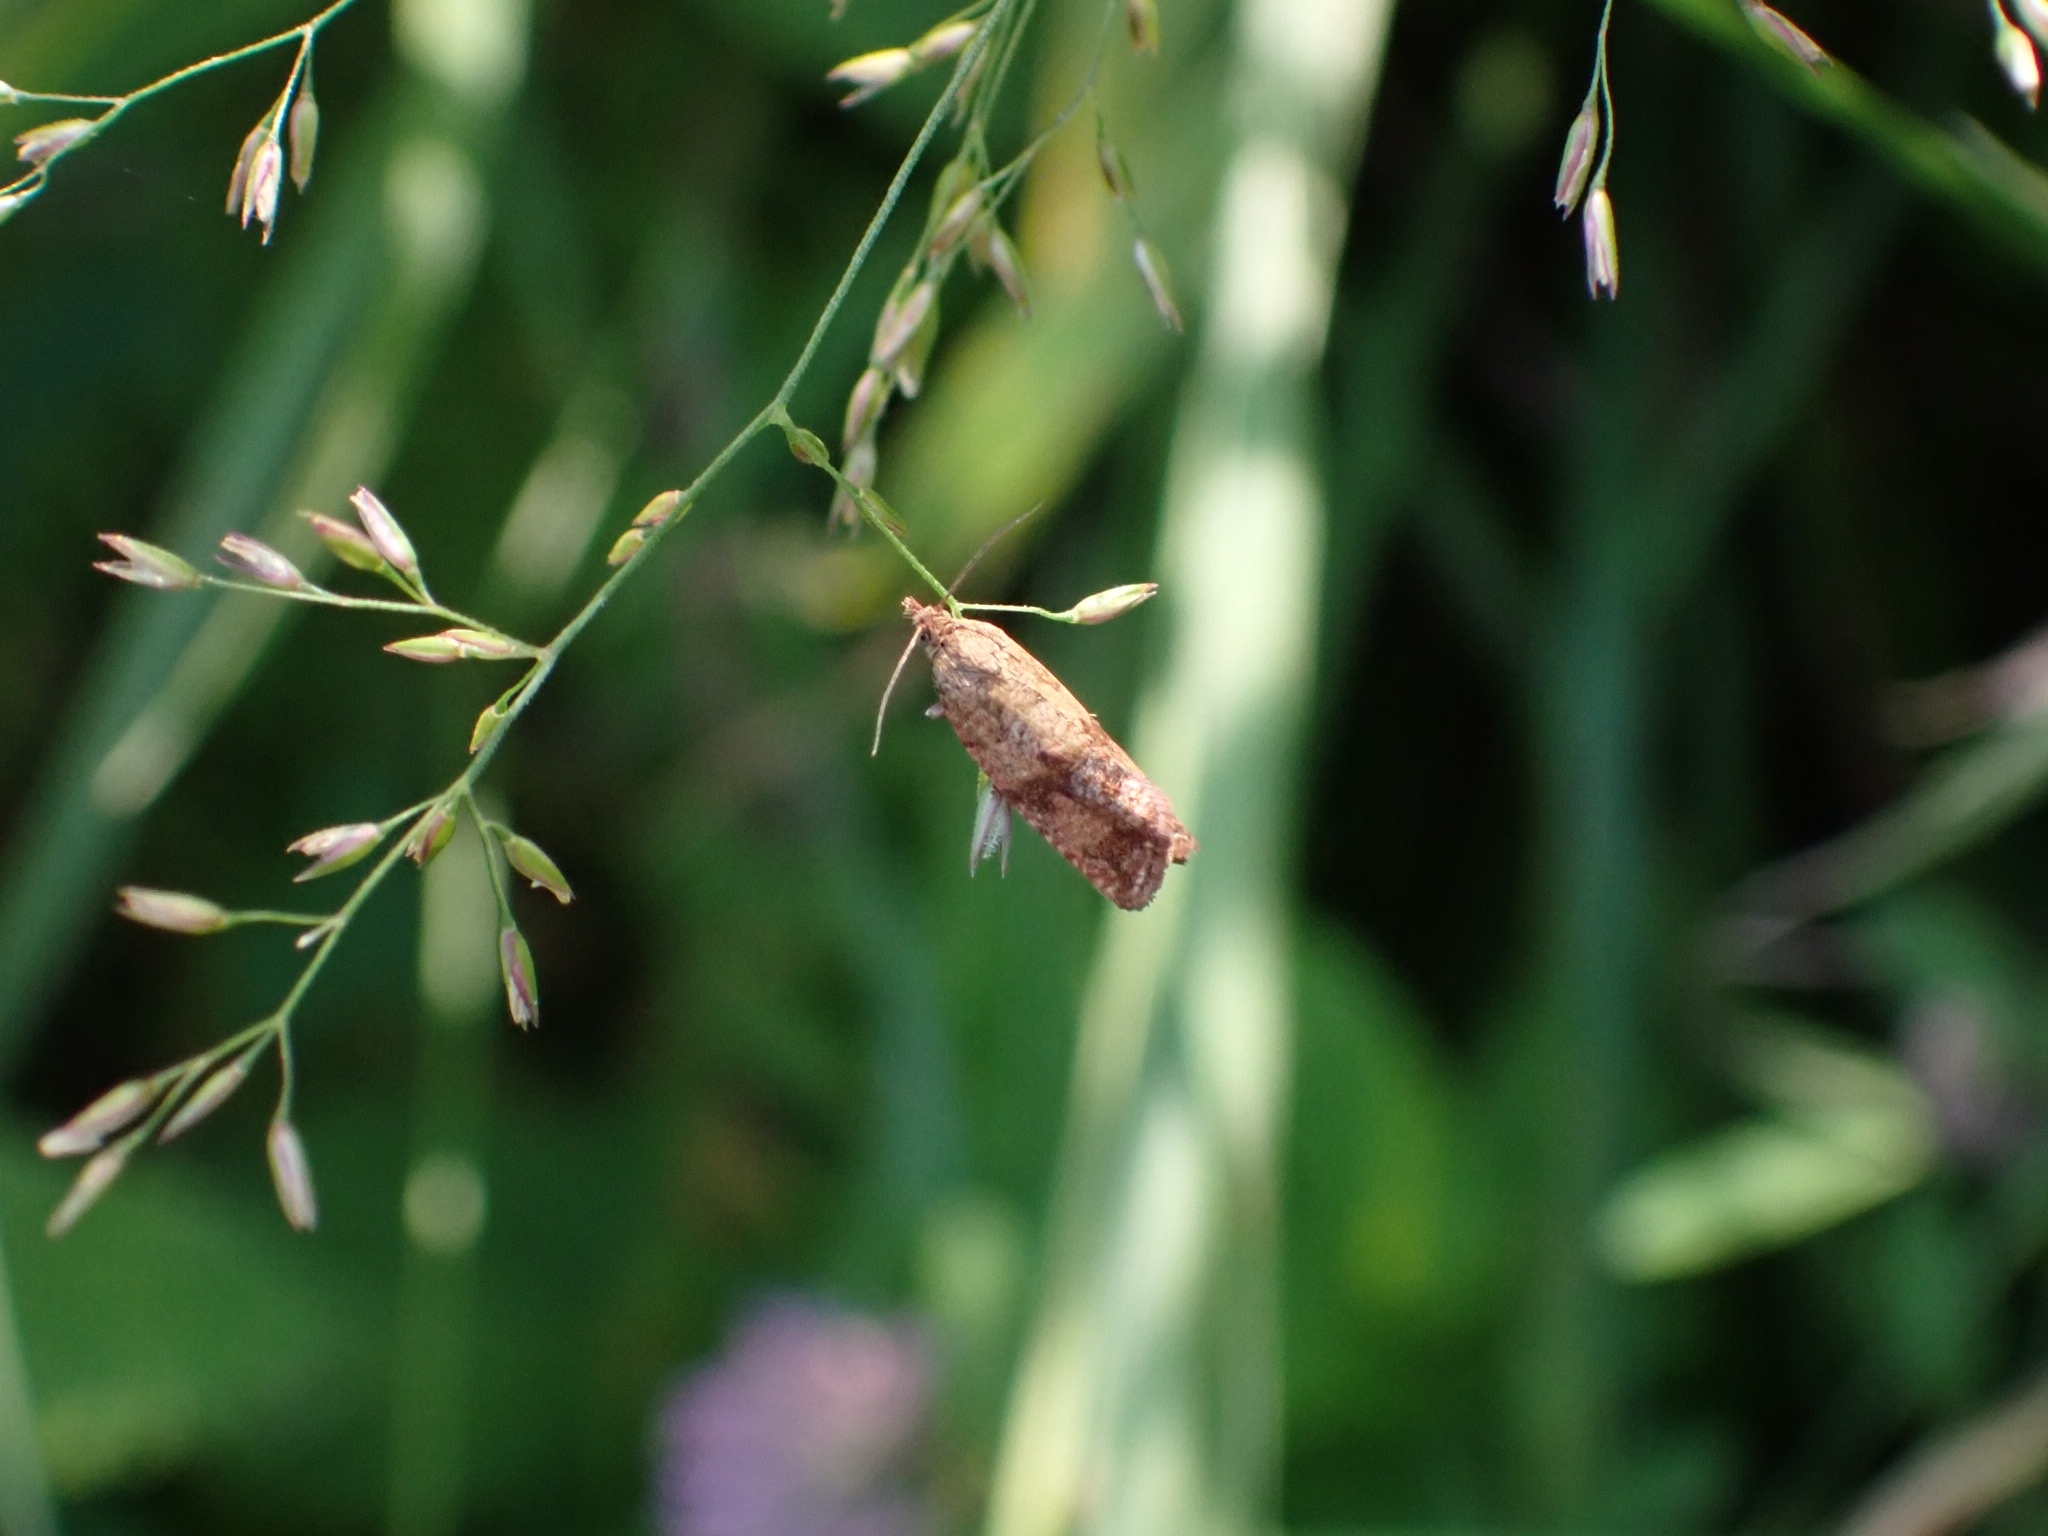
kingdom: Animalia
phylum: Arthropoda
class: Insecta
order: Lepidoptera
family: Tortricidae
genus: Celypha
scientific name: Celypha striana
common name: Barred marble
